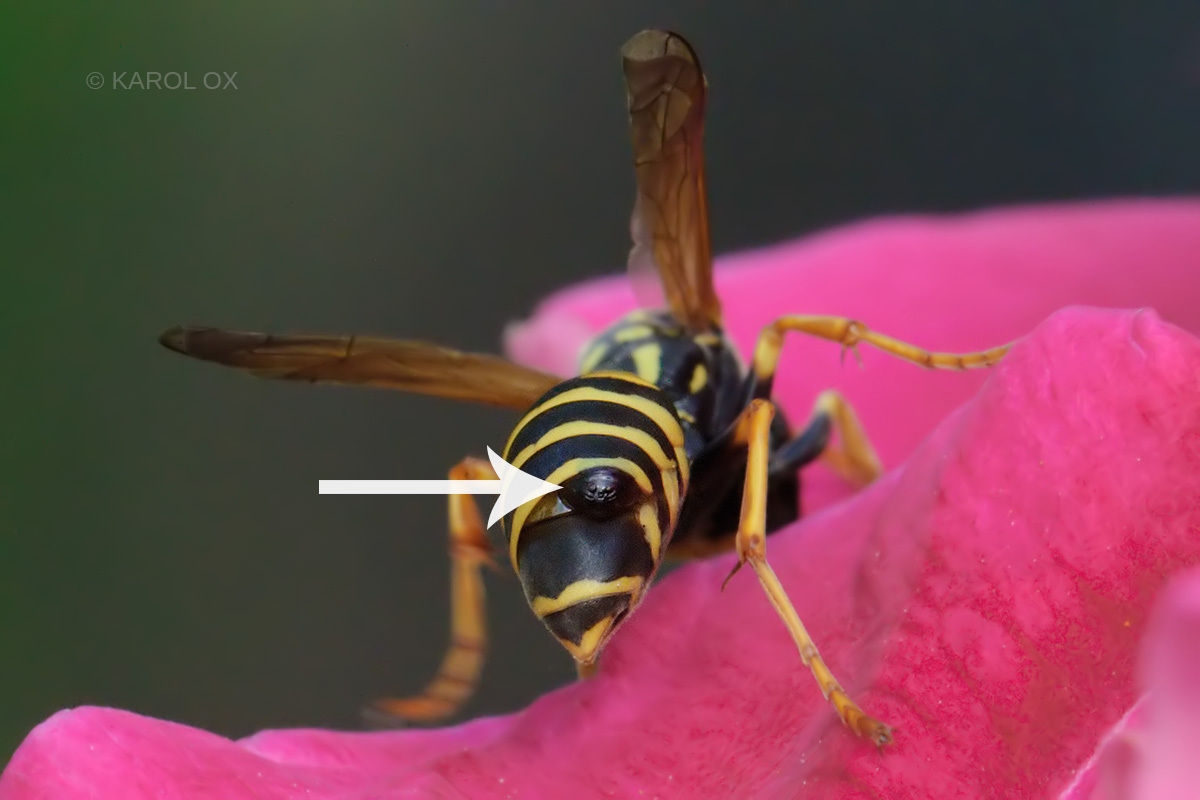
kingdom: Animalia
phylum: Arthropoda
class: Insecta
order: Strepsiptera
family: Xenidae
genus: Xenos
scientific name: Xenos vesparum
